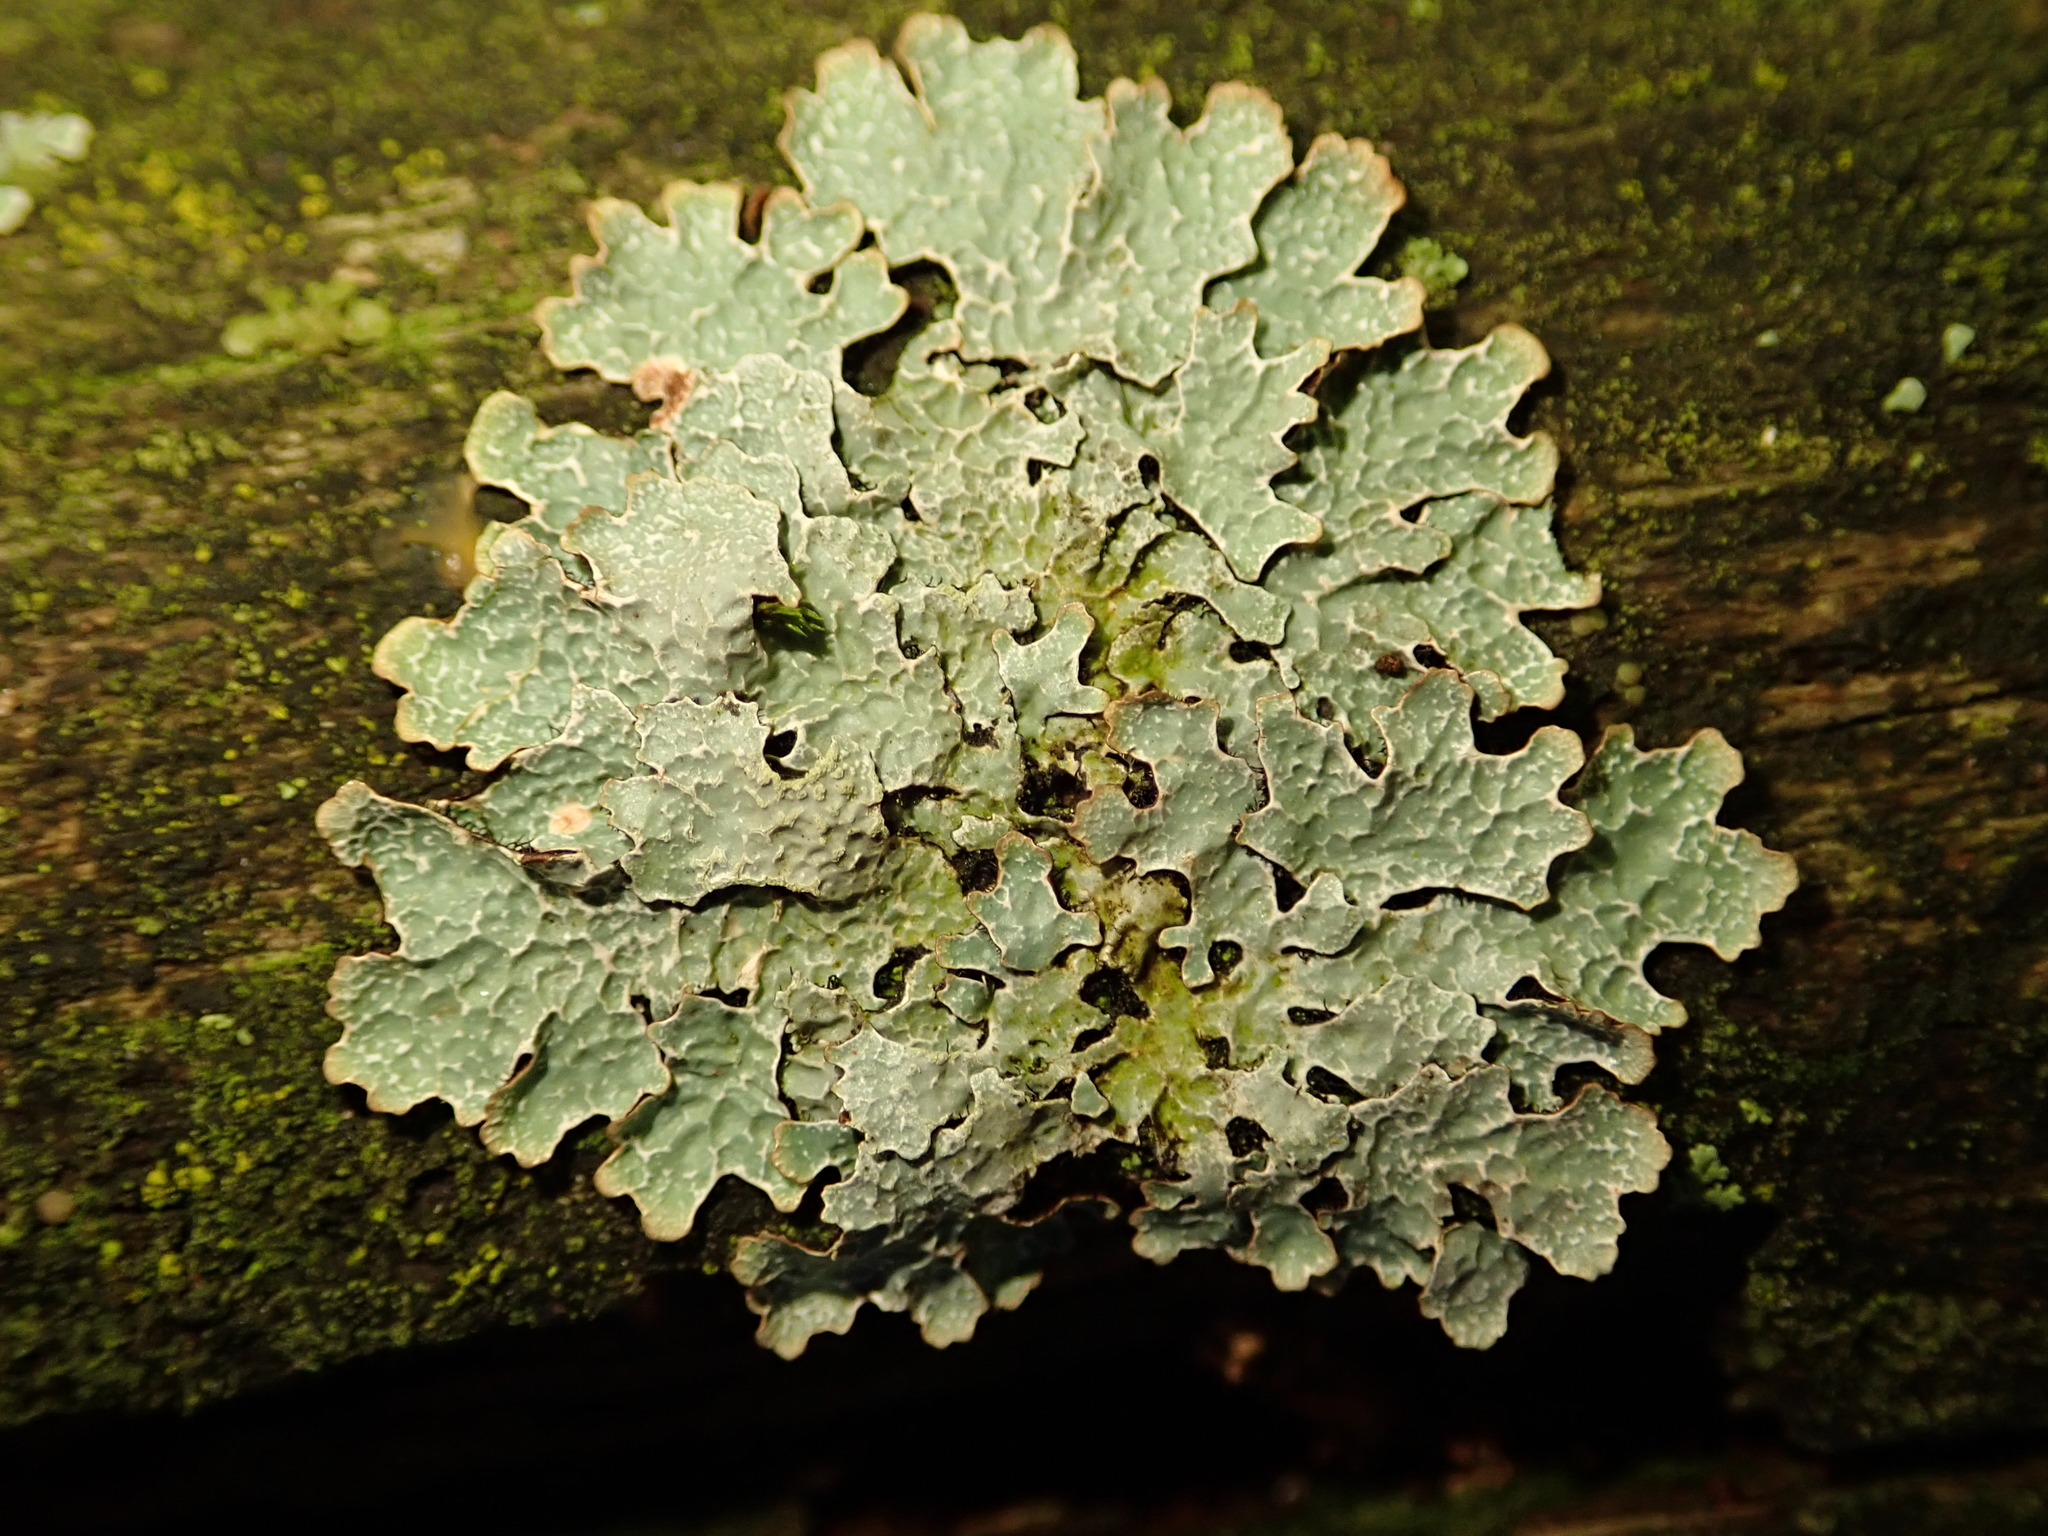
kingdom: Fungi
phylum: Ascomycota
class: Lecanoromycetes
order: Lecanorales
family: Parmeliaceae
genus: Parmelia
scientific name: Parmelia sulcata
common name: Netted shield lichen
